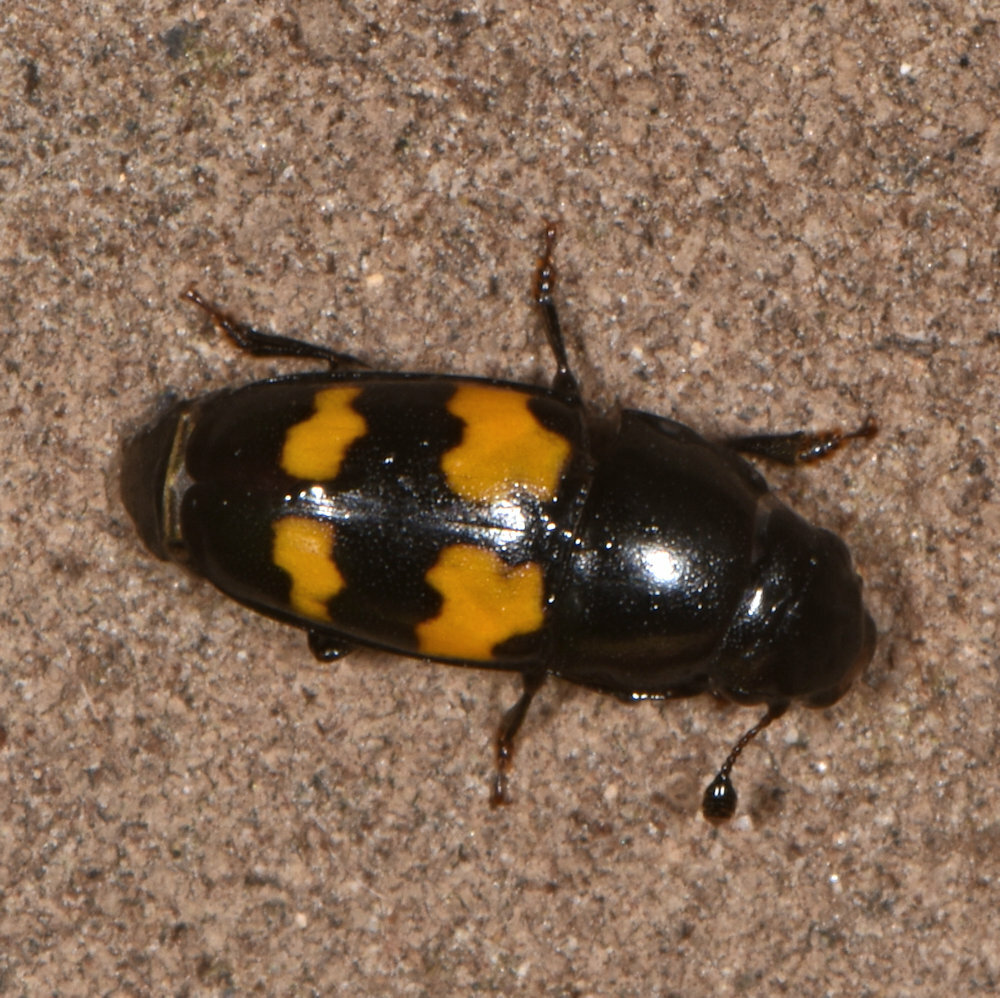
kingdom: Animalia
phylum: Arthropoda
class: Insecta
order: Coleoptera
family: Nitidulidae
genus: Glischrochilus
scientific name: Glischrochilus fasciatus
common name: Picnic beetle
